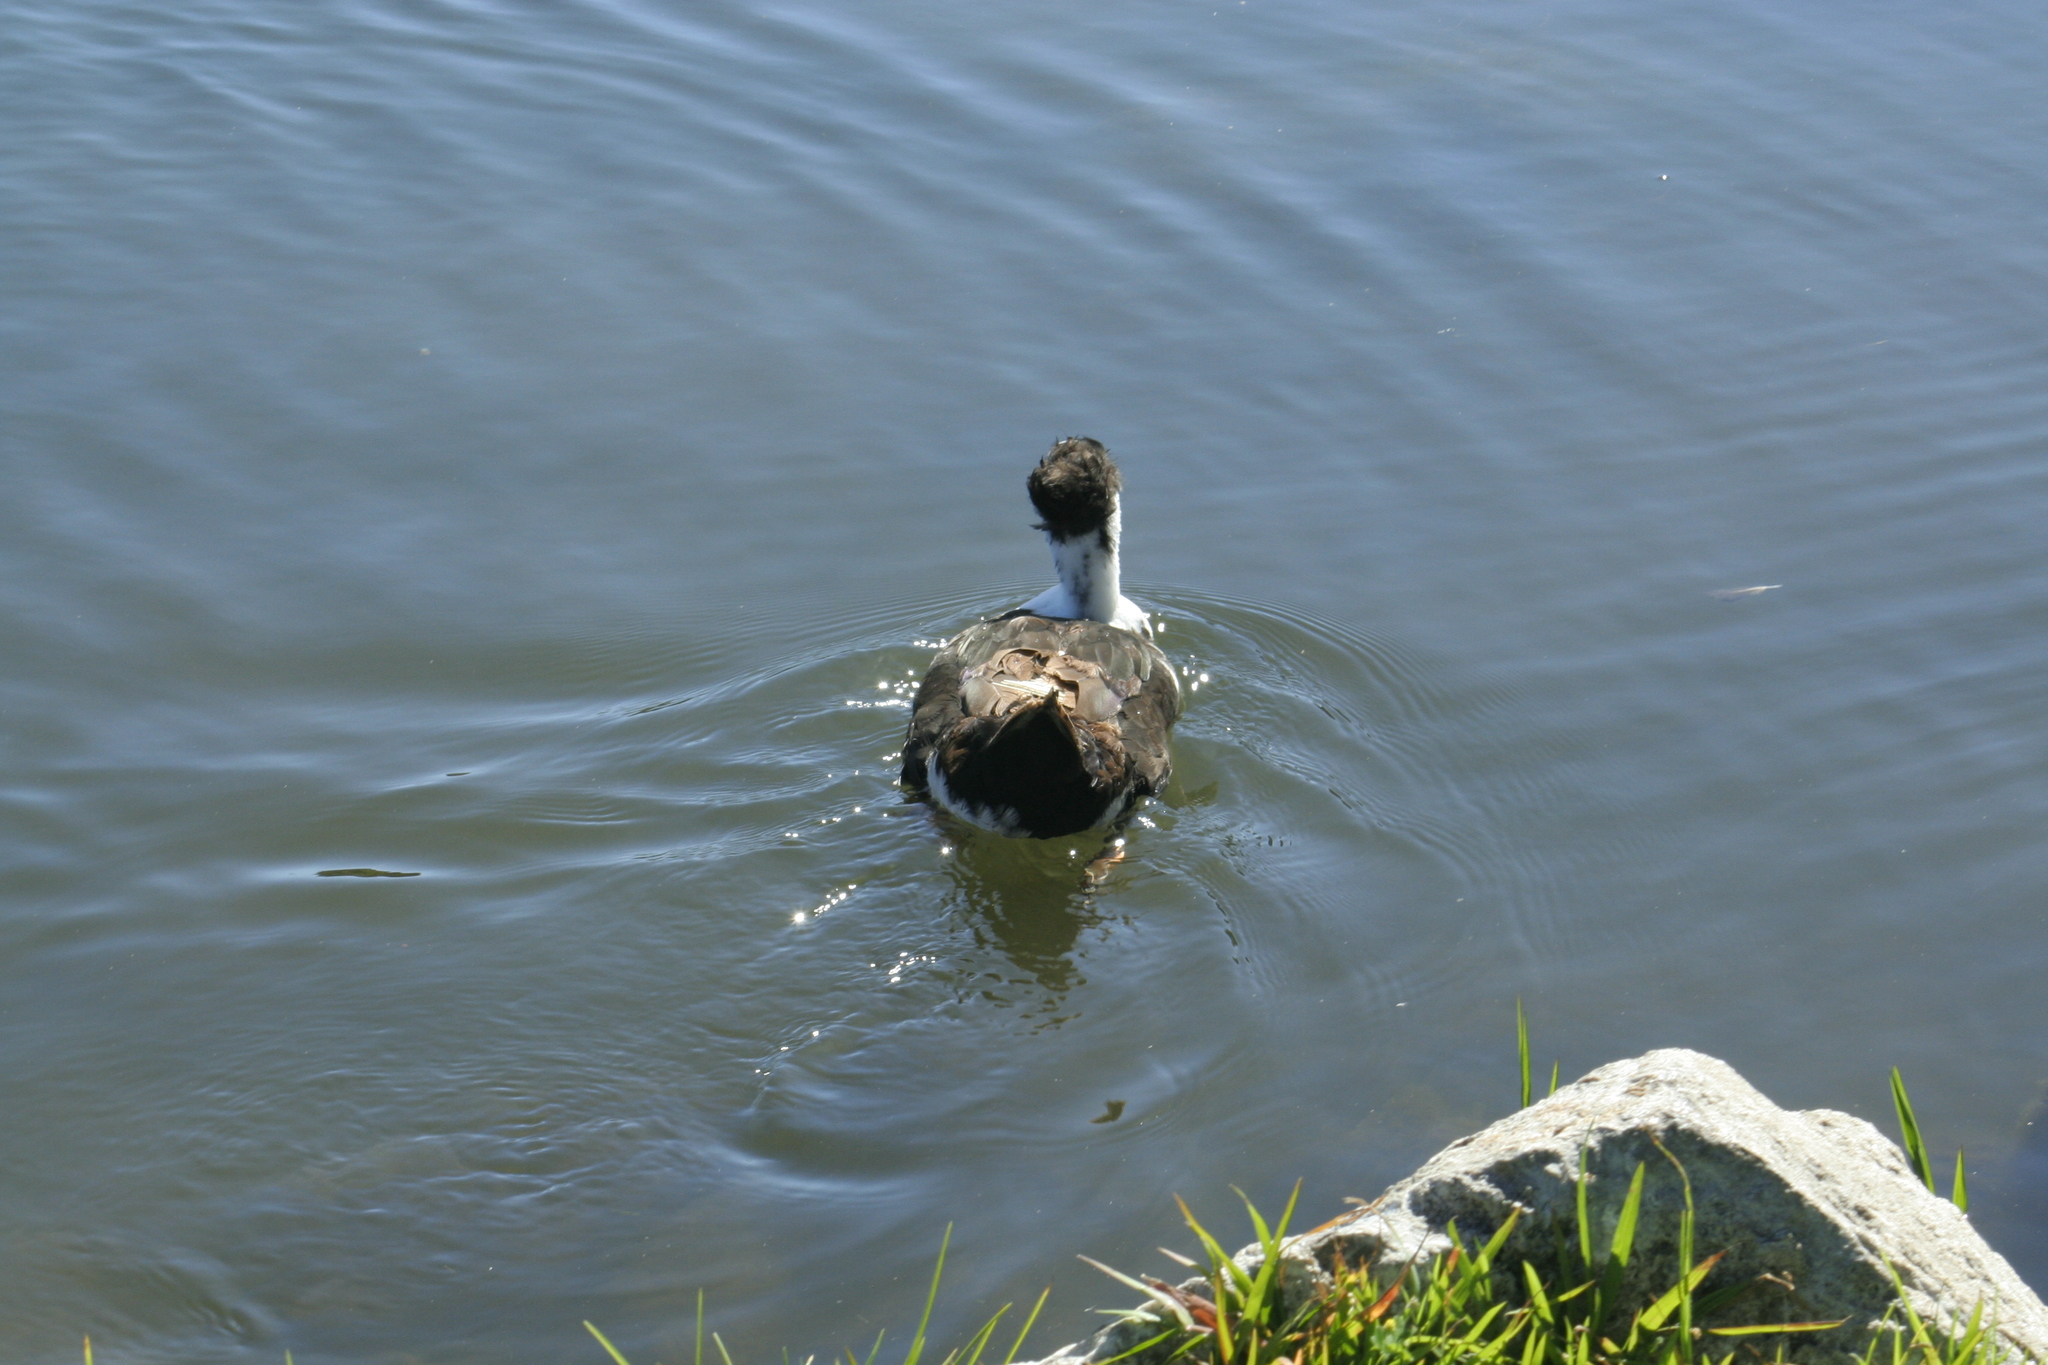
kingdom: Animalia
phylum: Chordata
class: Aves
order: Anseriformes
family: Anatidae
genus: Anas
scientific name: Anas platyrhynchos
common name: Mallard
